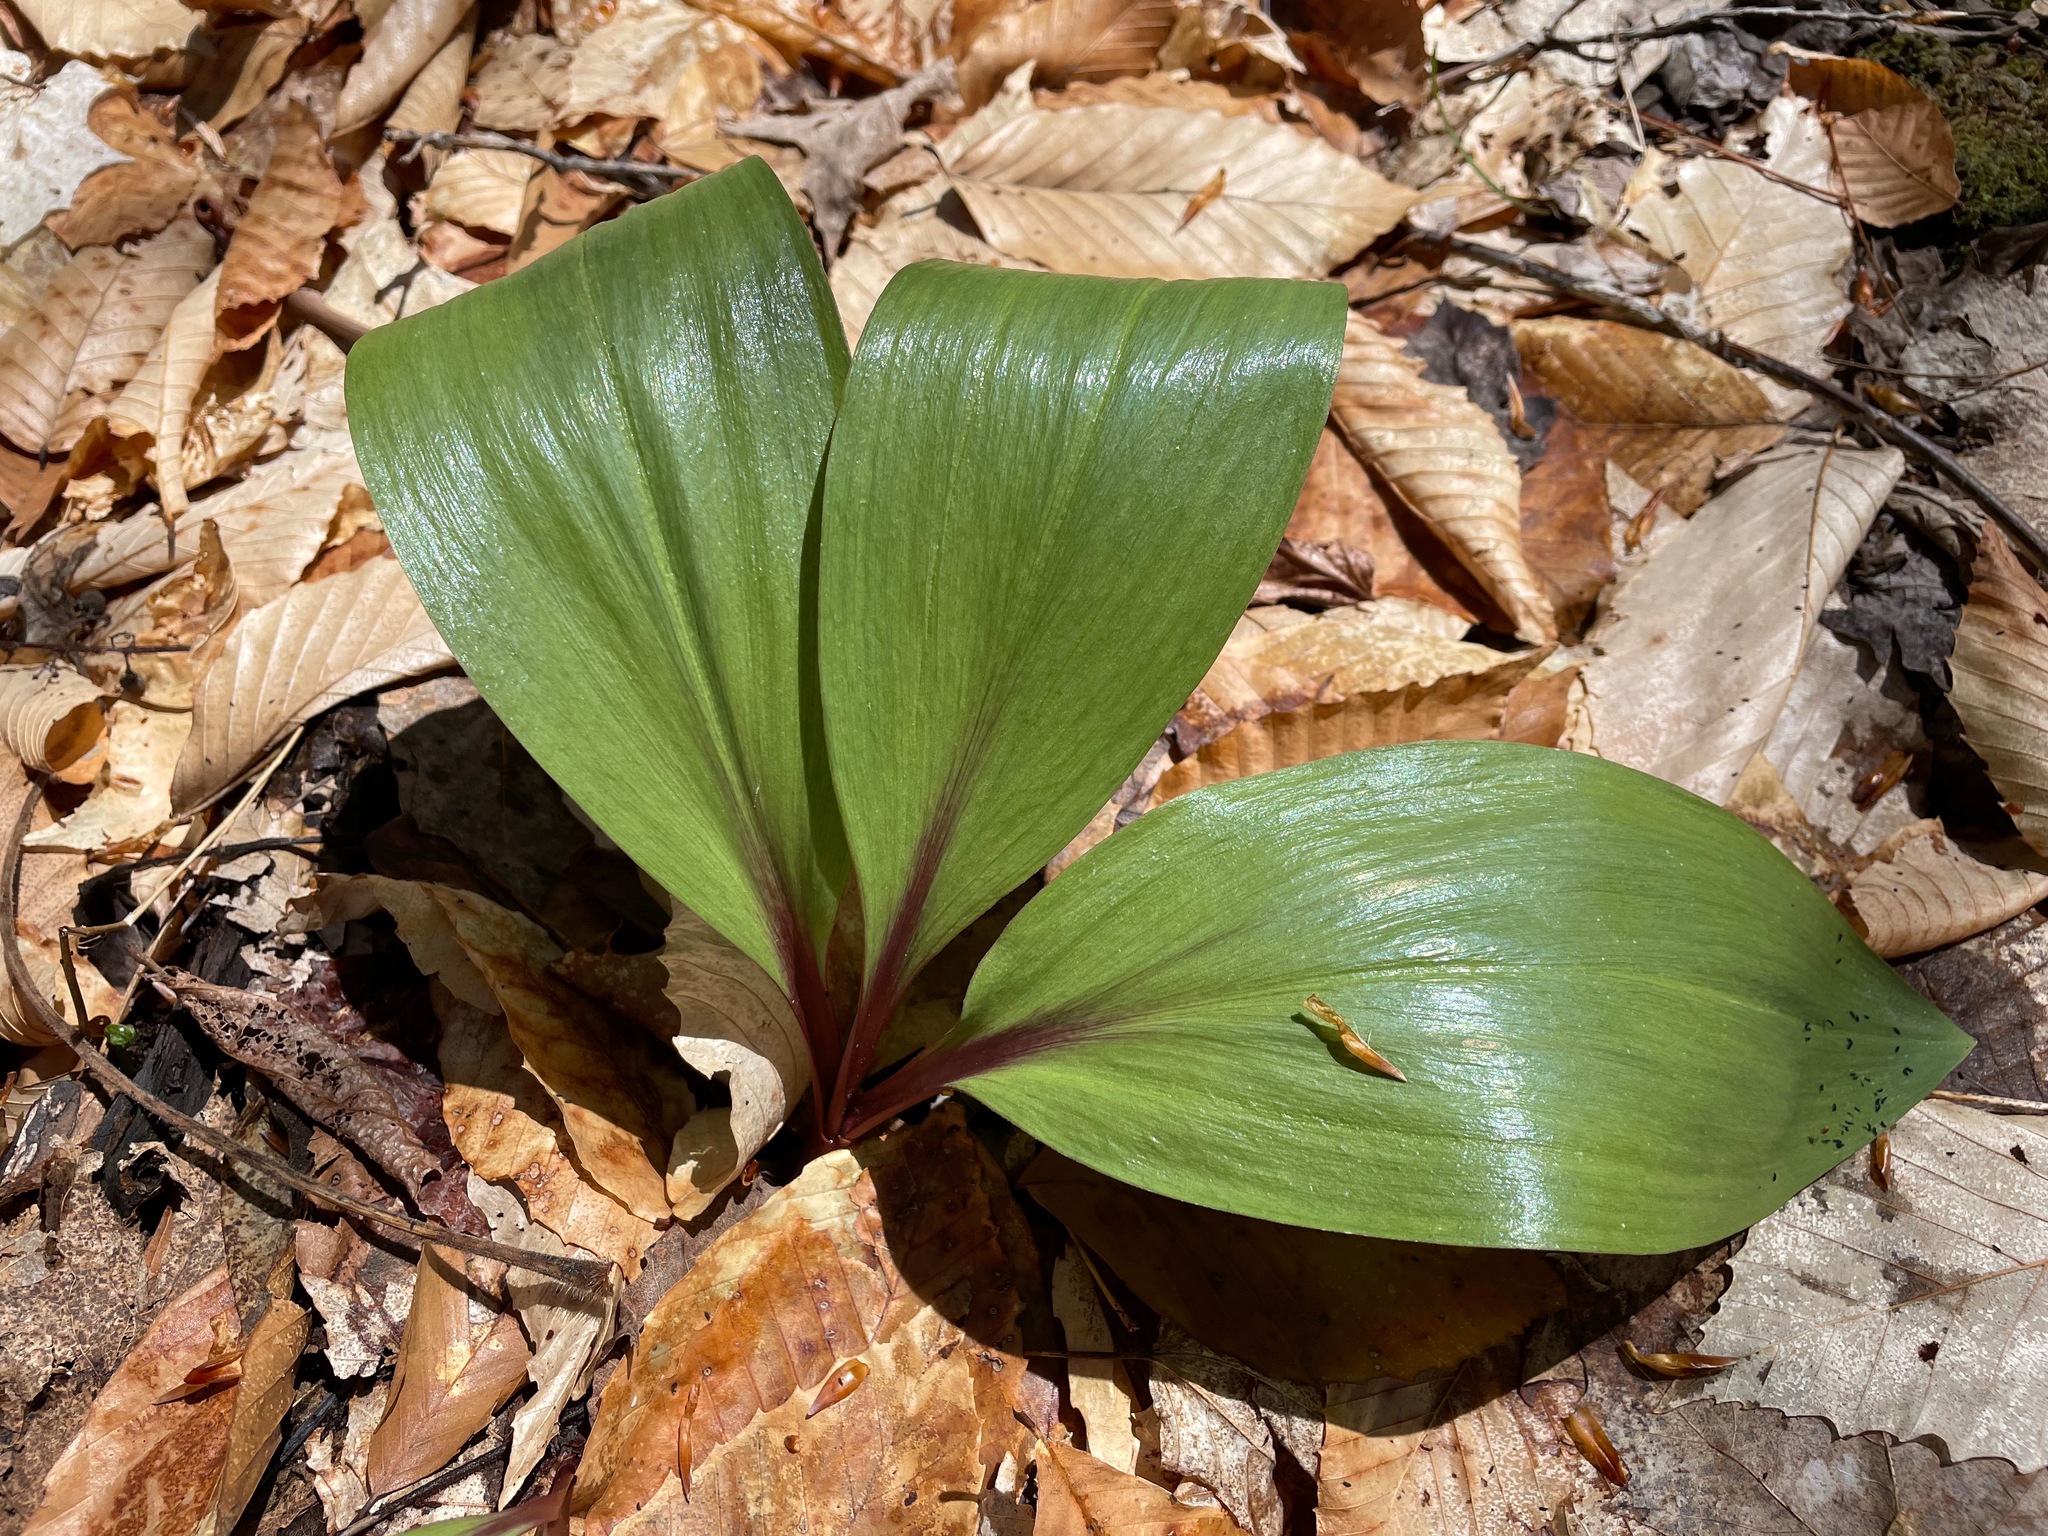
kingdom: Plantae
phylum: Tracheophyta
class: Liliopsida
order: Asparagales
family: Amaryllidaceae
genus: Allium
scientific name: Allium tricoccum
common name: Ramp
